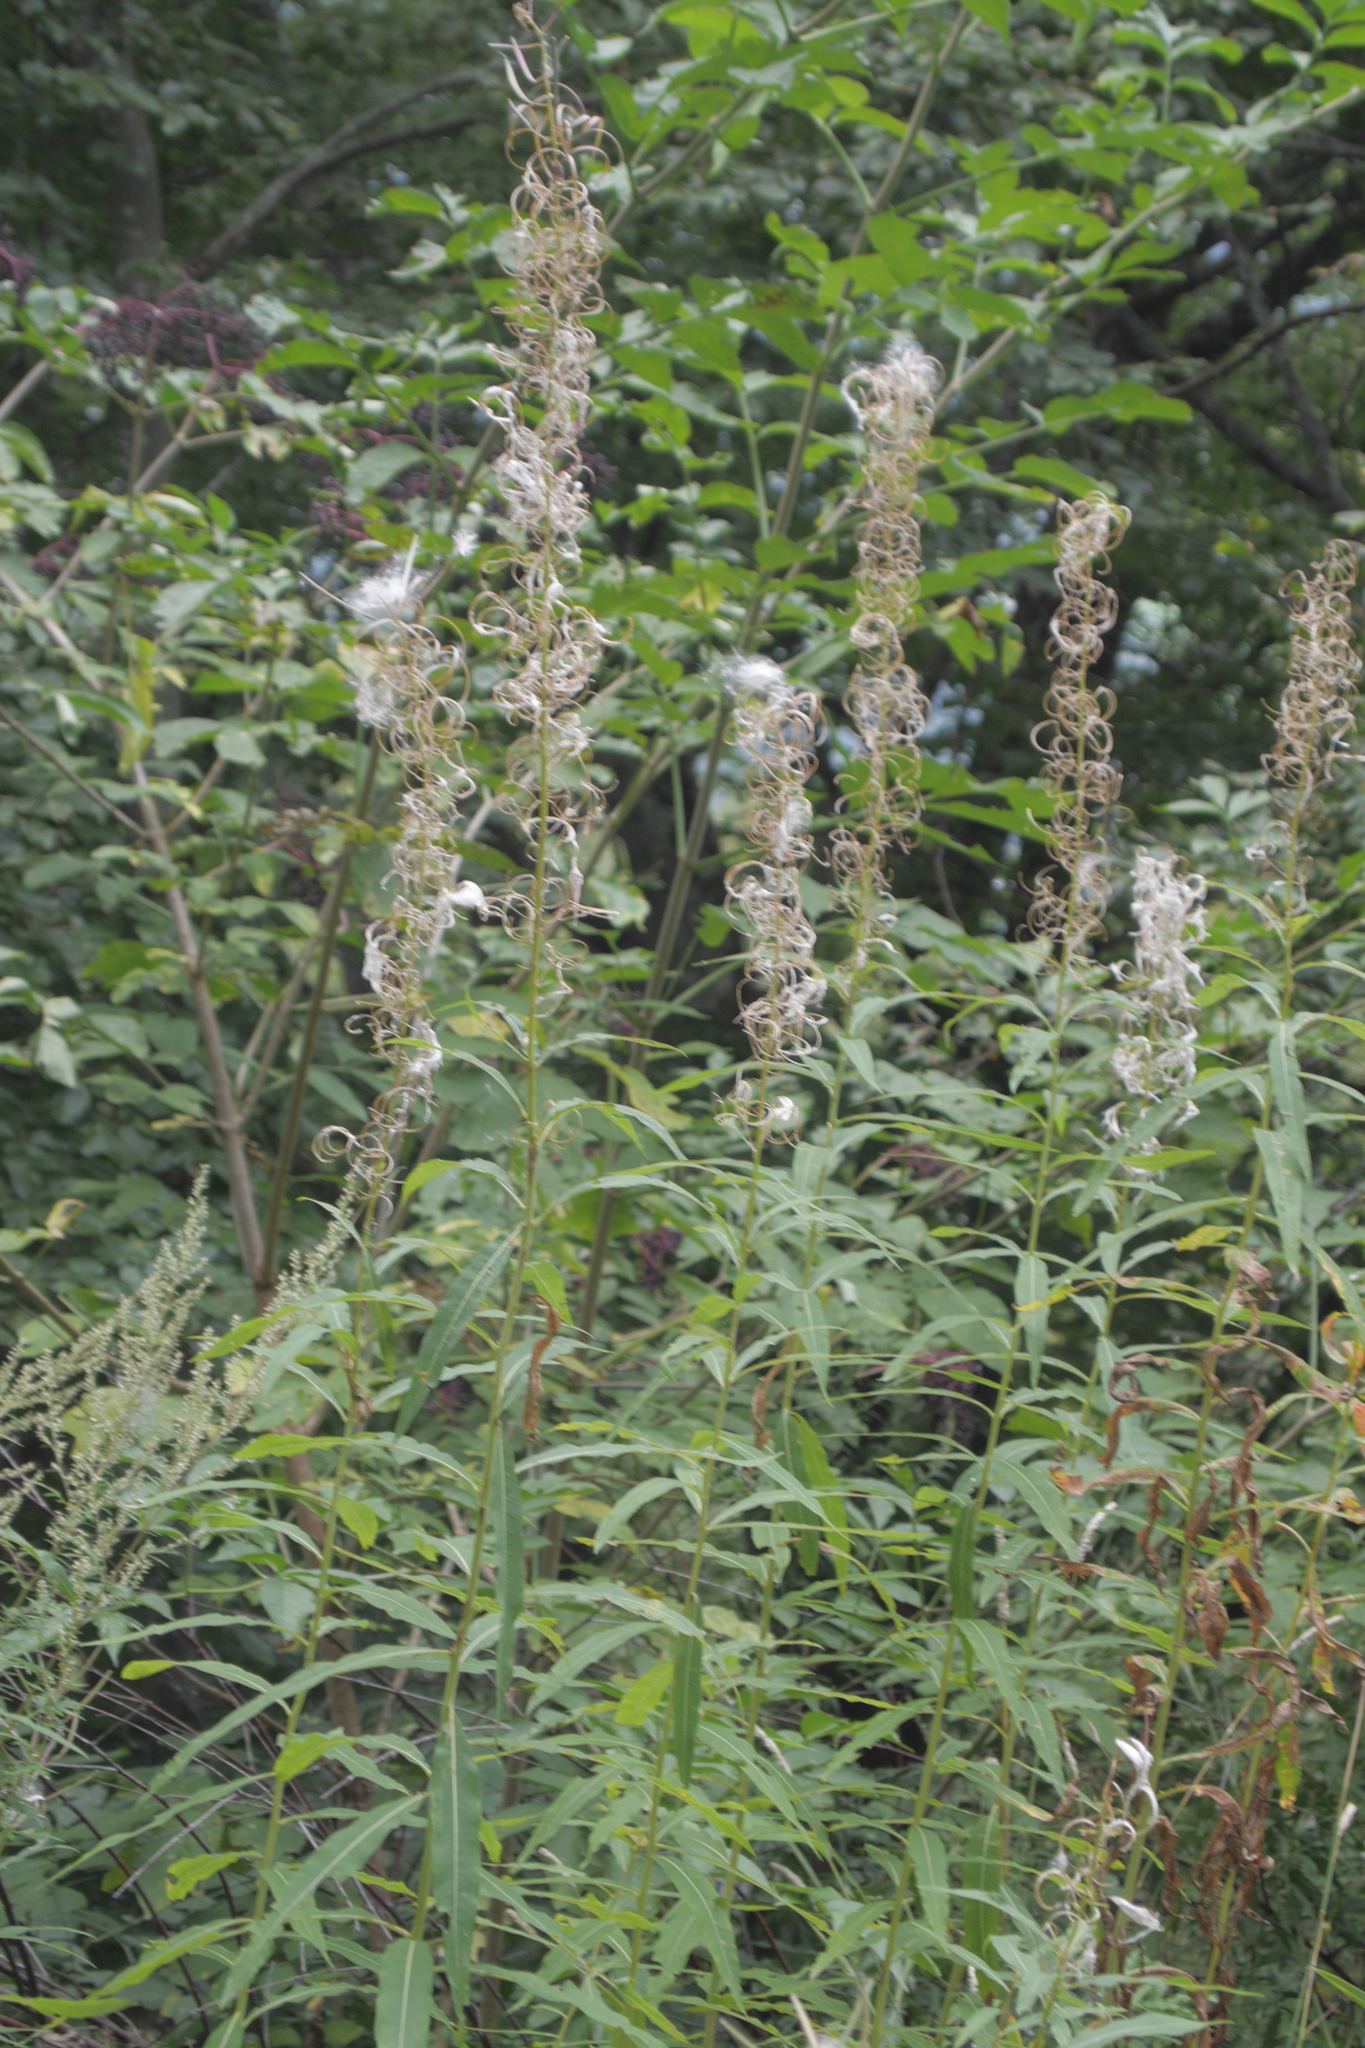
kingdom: Plantae
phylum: Tracheophyta
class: Magnoliopsida
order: Myrtales
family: Onagraceae
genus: Chamaenerion
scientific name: Chamaenerion angustifolium
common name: Fireweed
